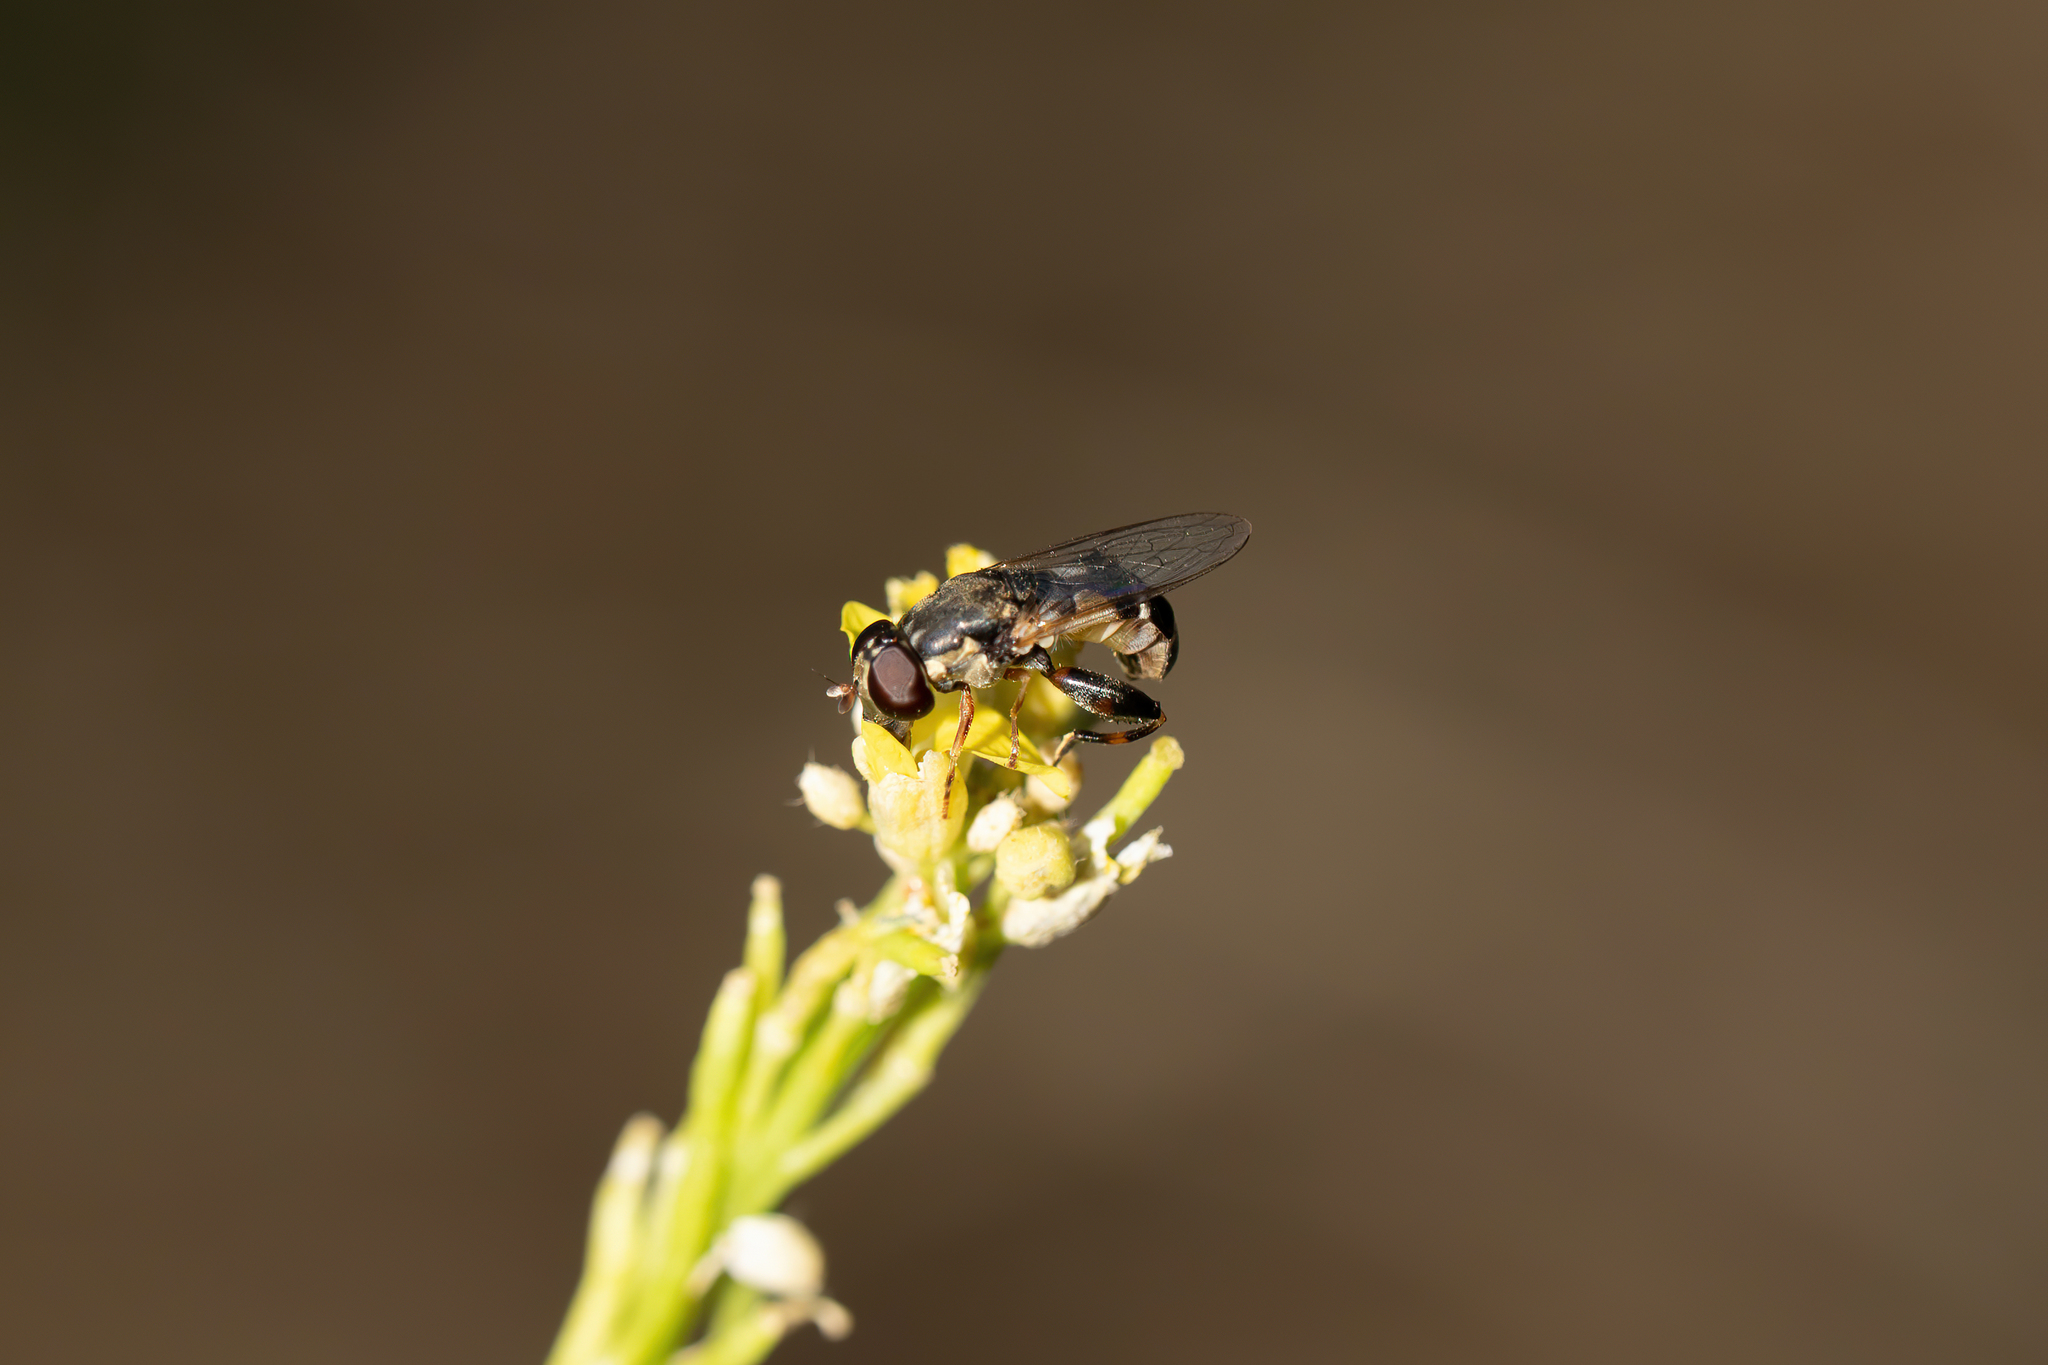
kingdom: Animalia
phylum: Arthropoda
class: Insecta
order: Diptera
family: Syrphidae
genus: Syritta
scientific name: Syritta pipiens
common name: Hover fly
